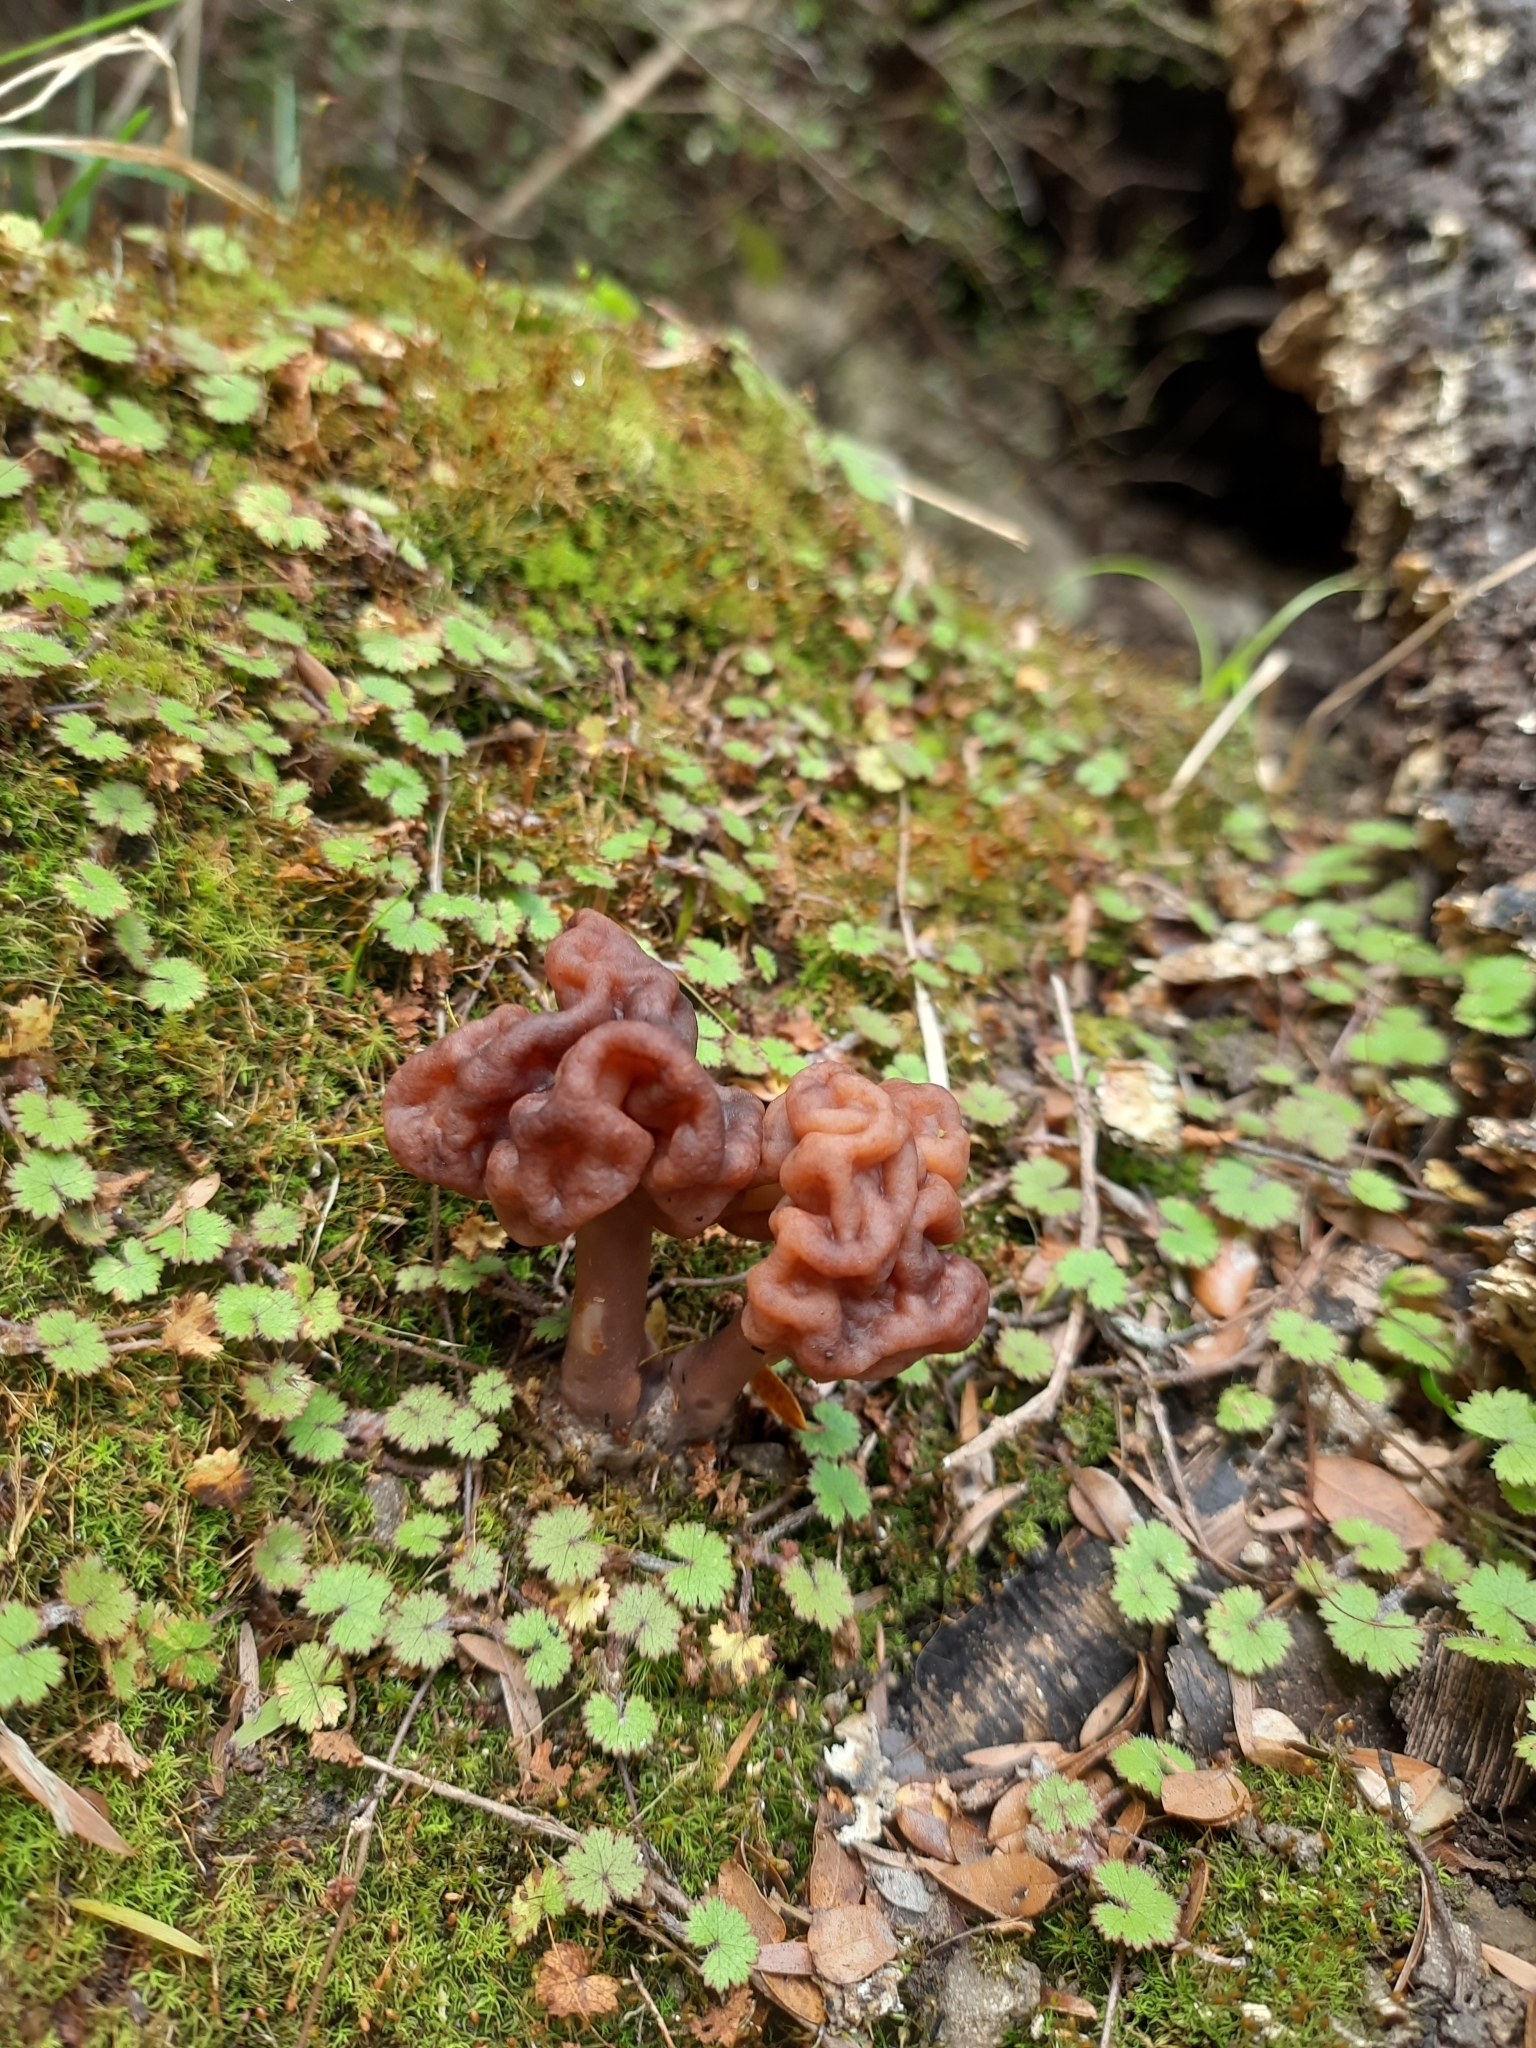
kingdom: Fungi
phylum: Ascomycota
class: Pezizomycetes
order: Pezizales
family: Discinaceae
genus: Gyromitra
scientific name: Gyromitra tasmanica
